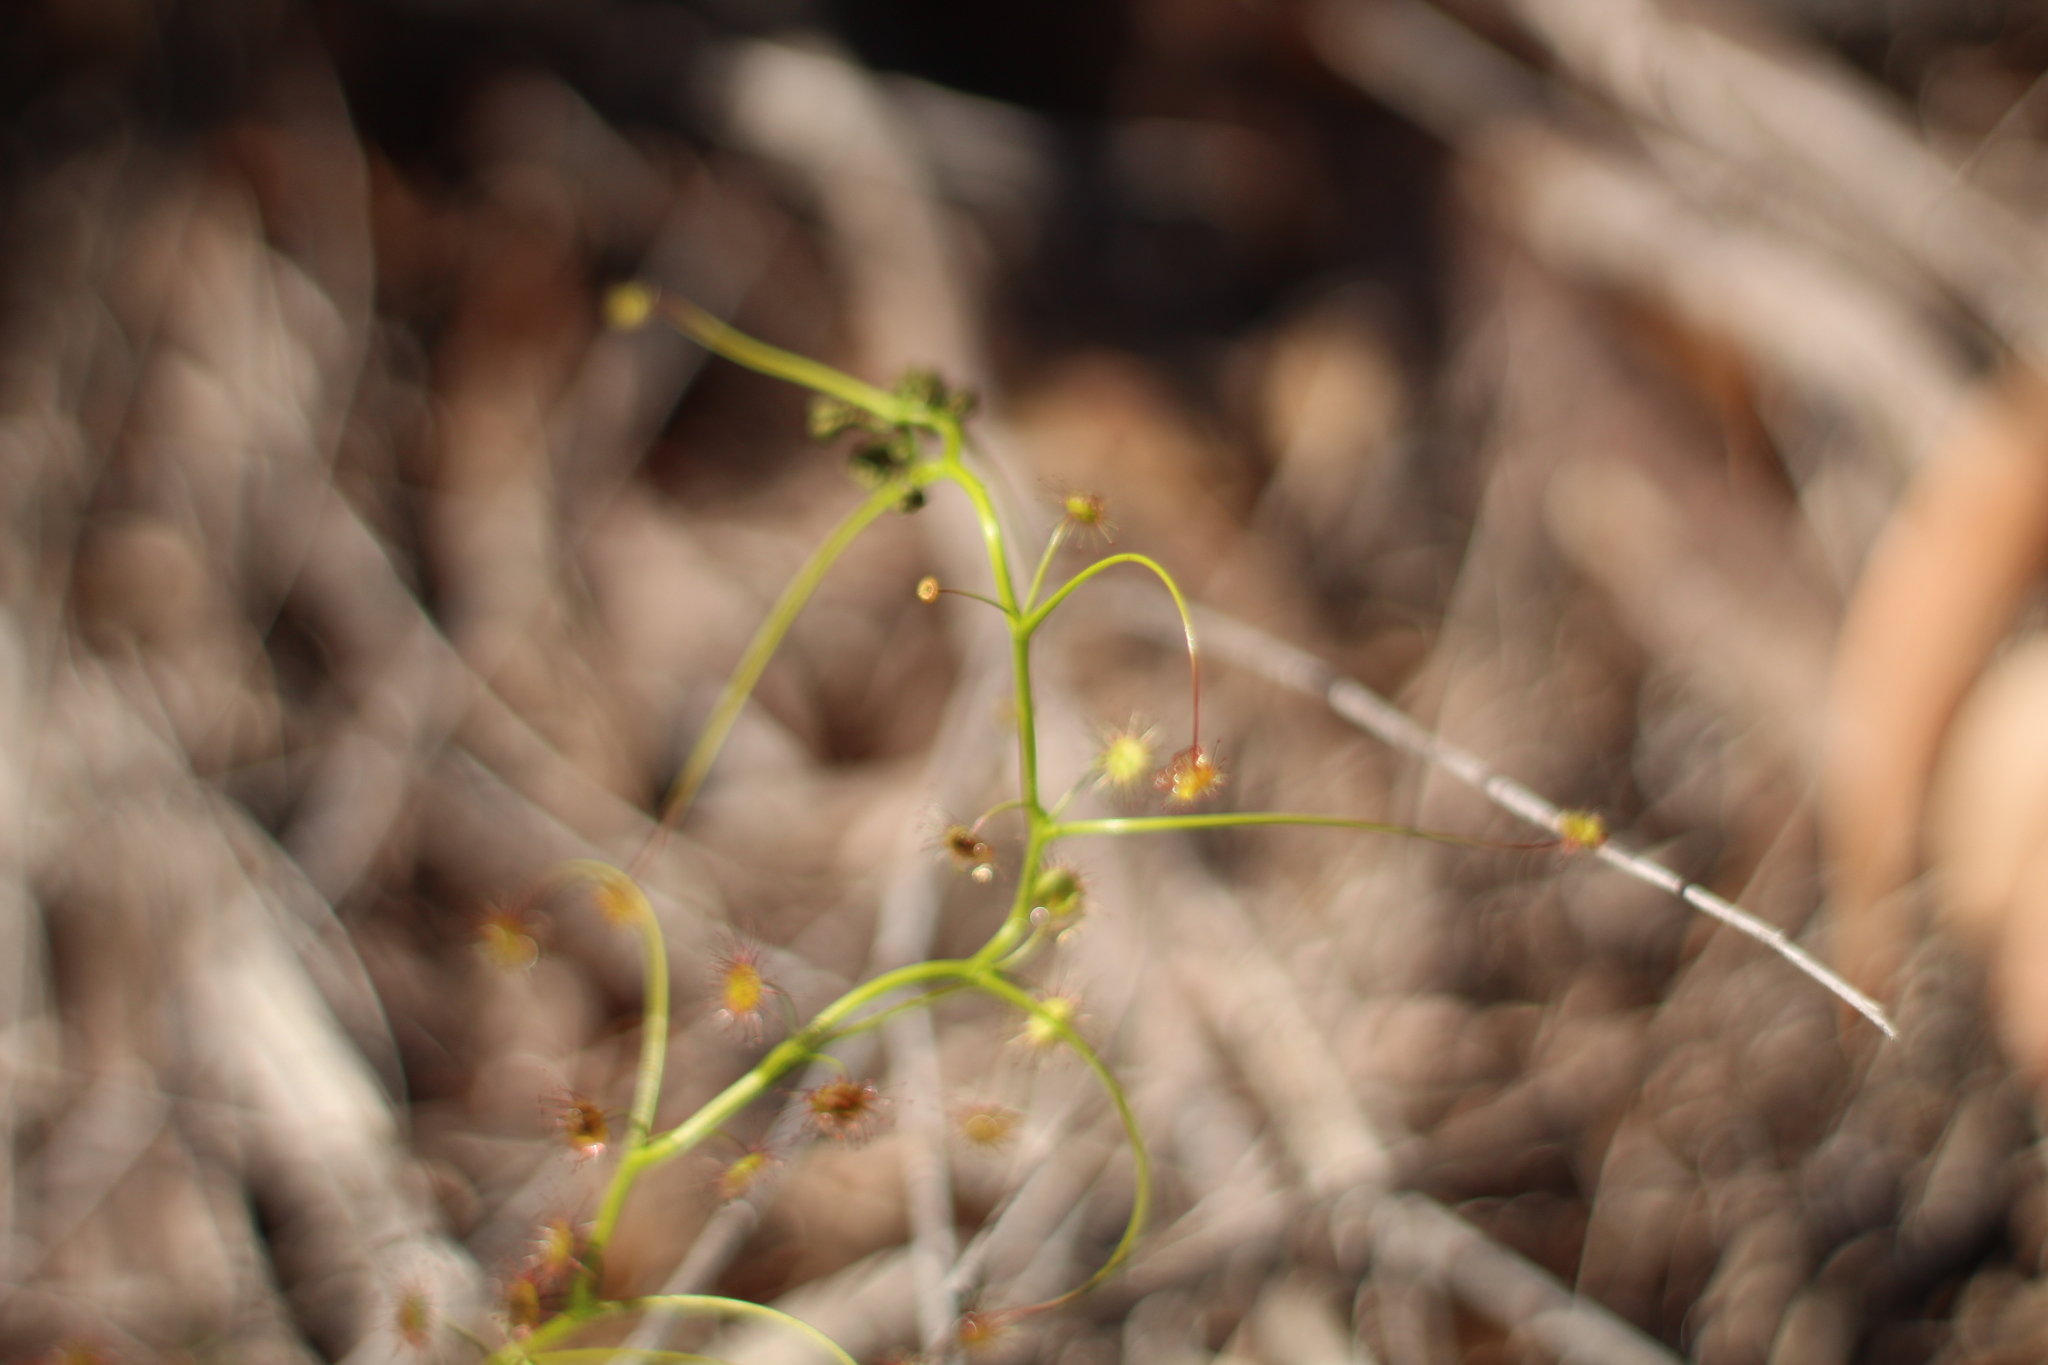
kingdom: Plantae
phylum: Tracheophyta
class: Magnoliopsida
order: Caryophyllales
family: Droseraceae
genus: Drosera
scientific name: Drosera pallida
